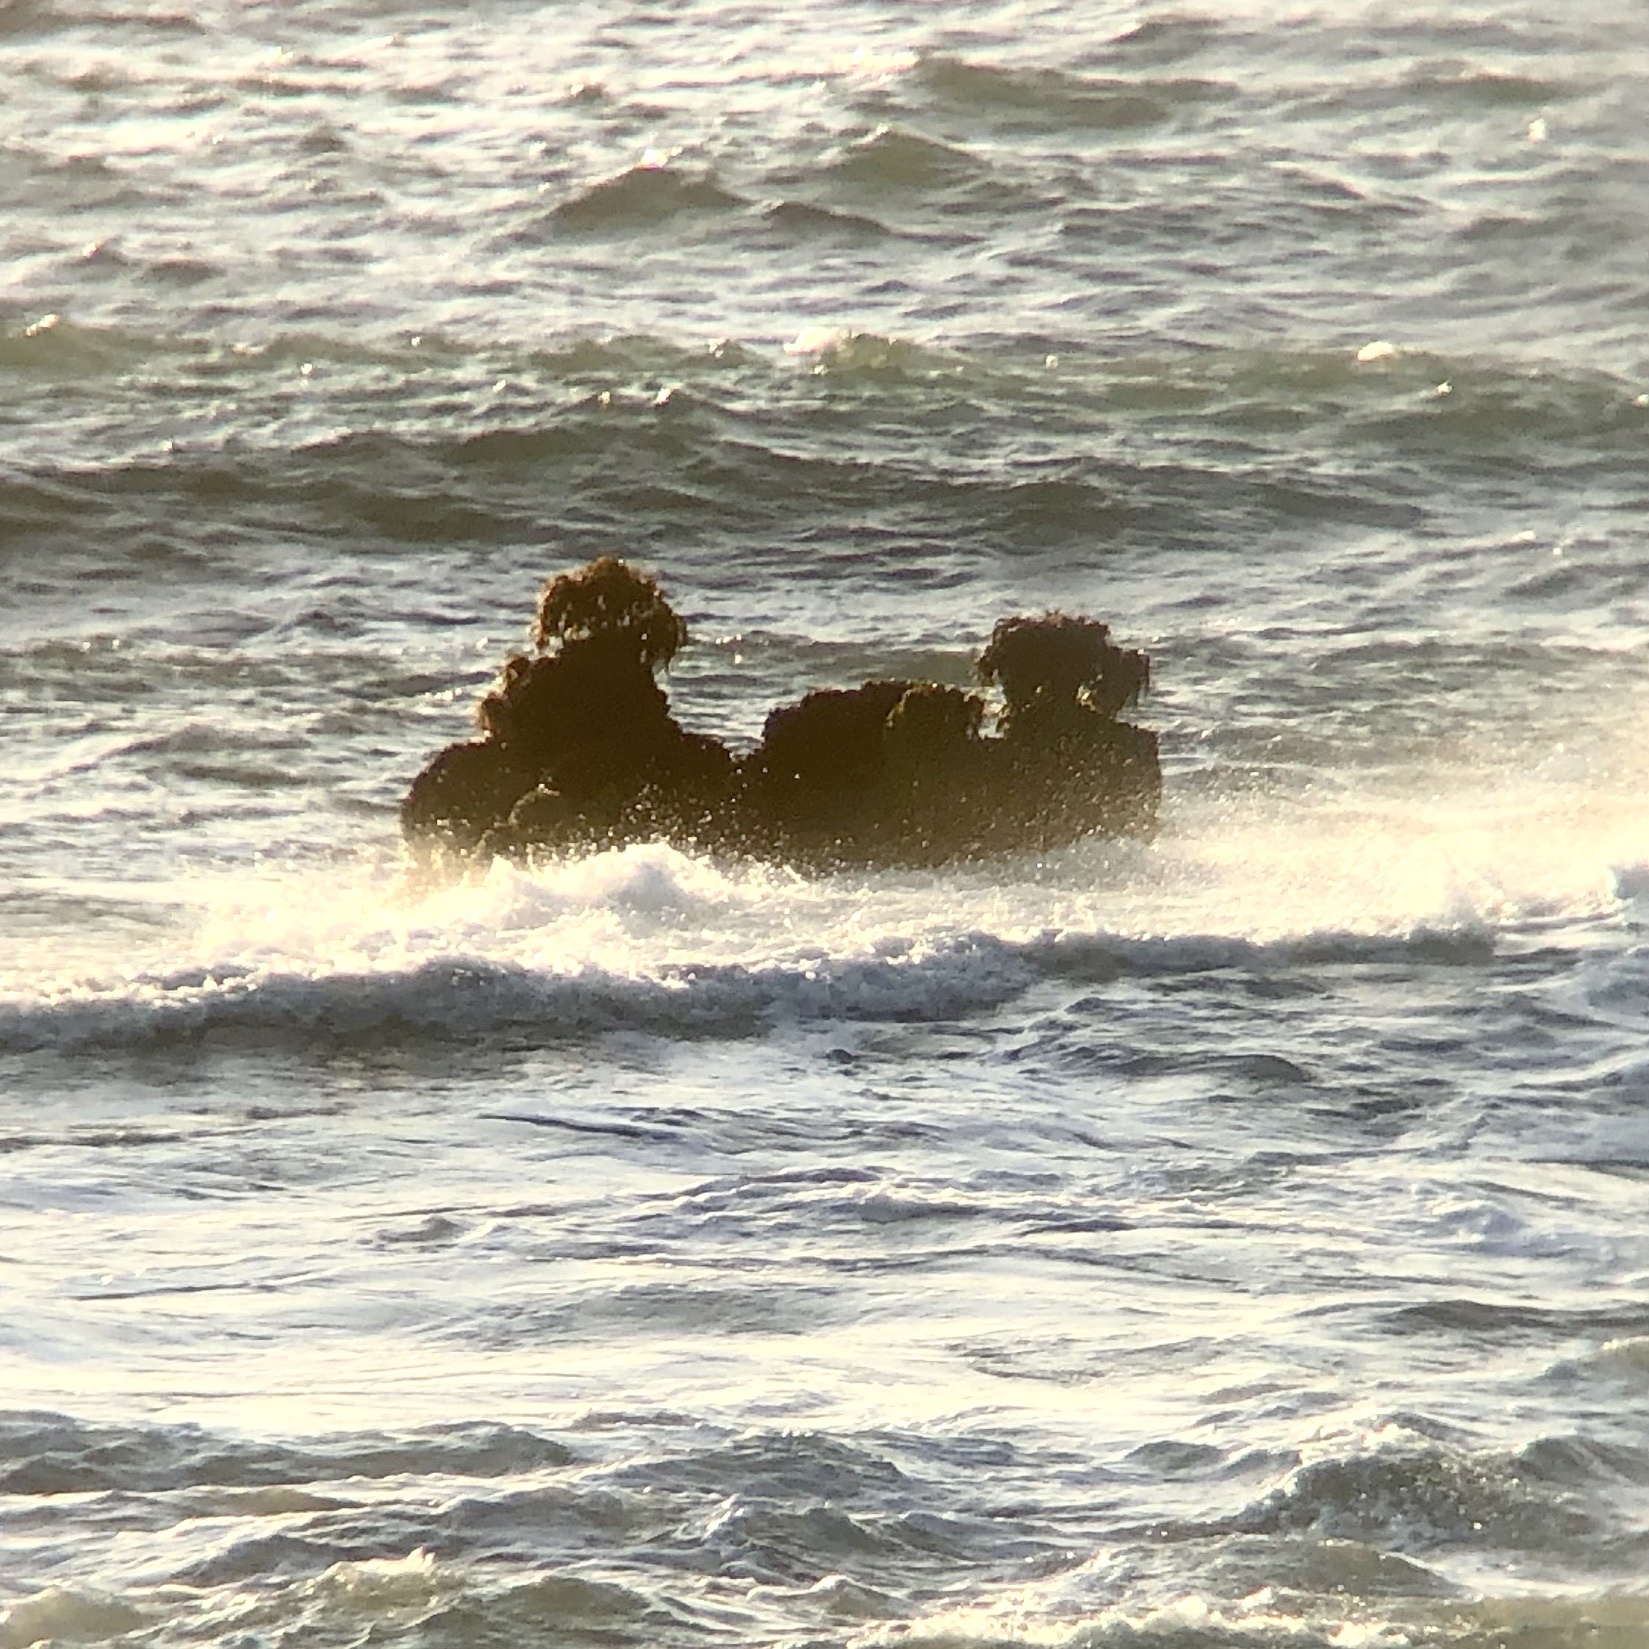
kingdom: Chromista
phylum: Ochrophyta
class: Phaeophyceae
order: Laminariales
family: Laminariaceae
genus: Postelsia
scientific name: Postelsia palmiformis
